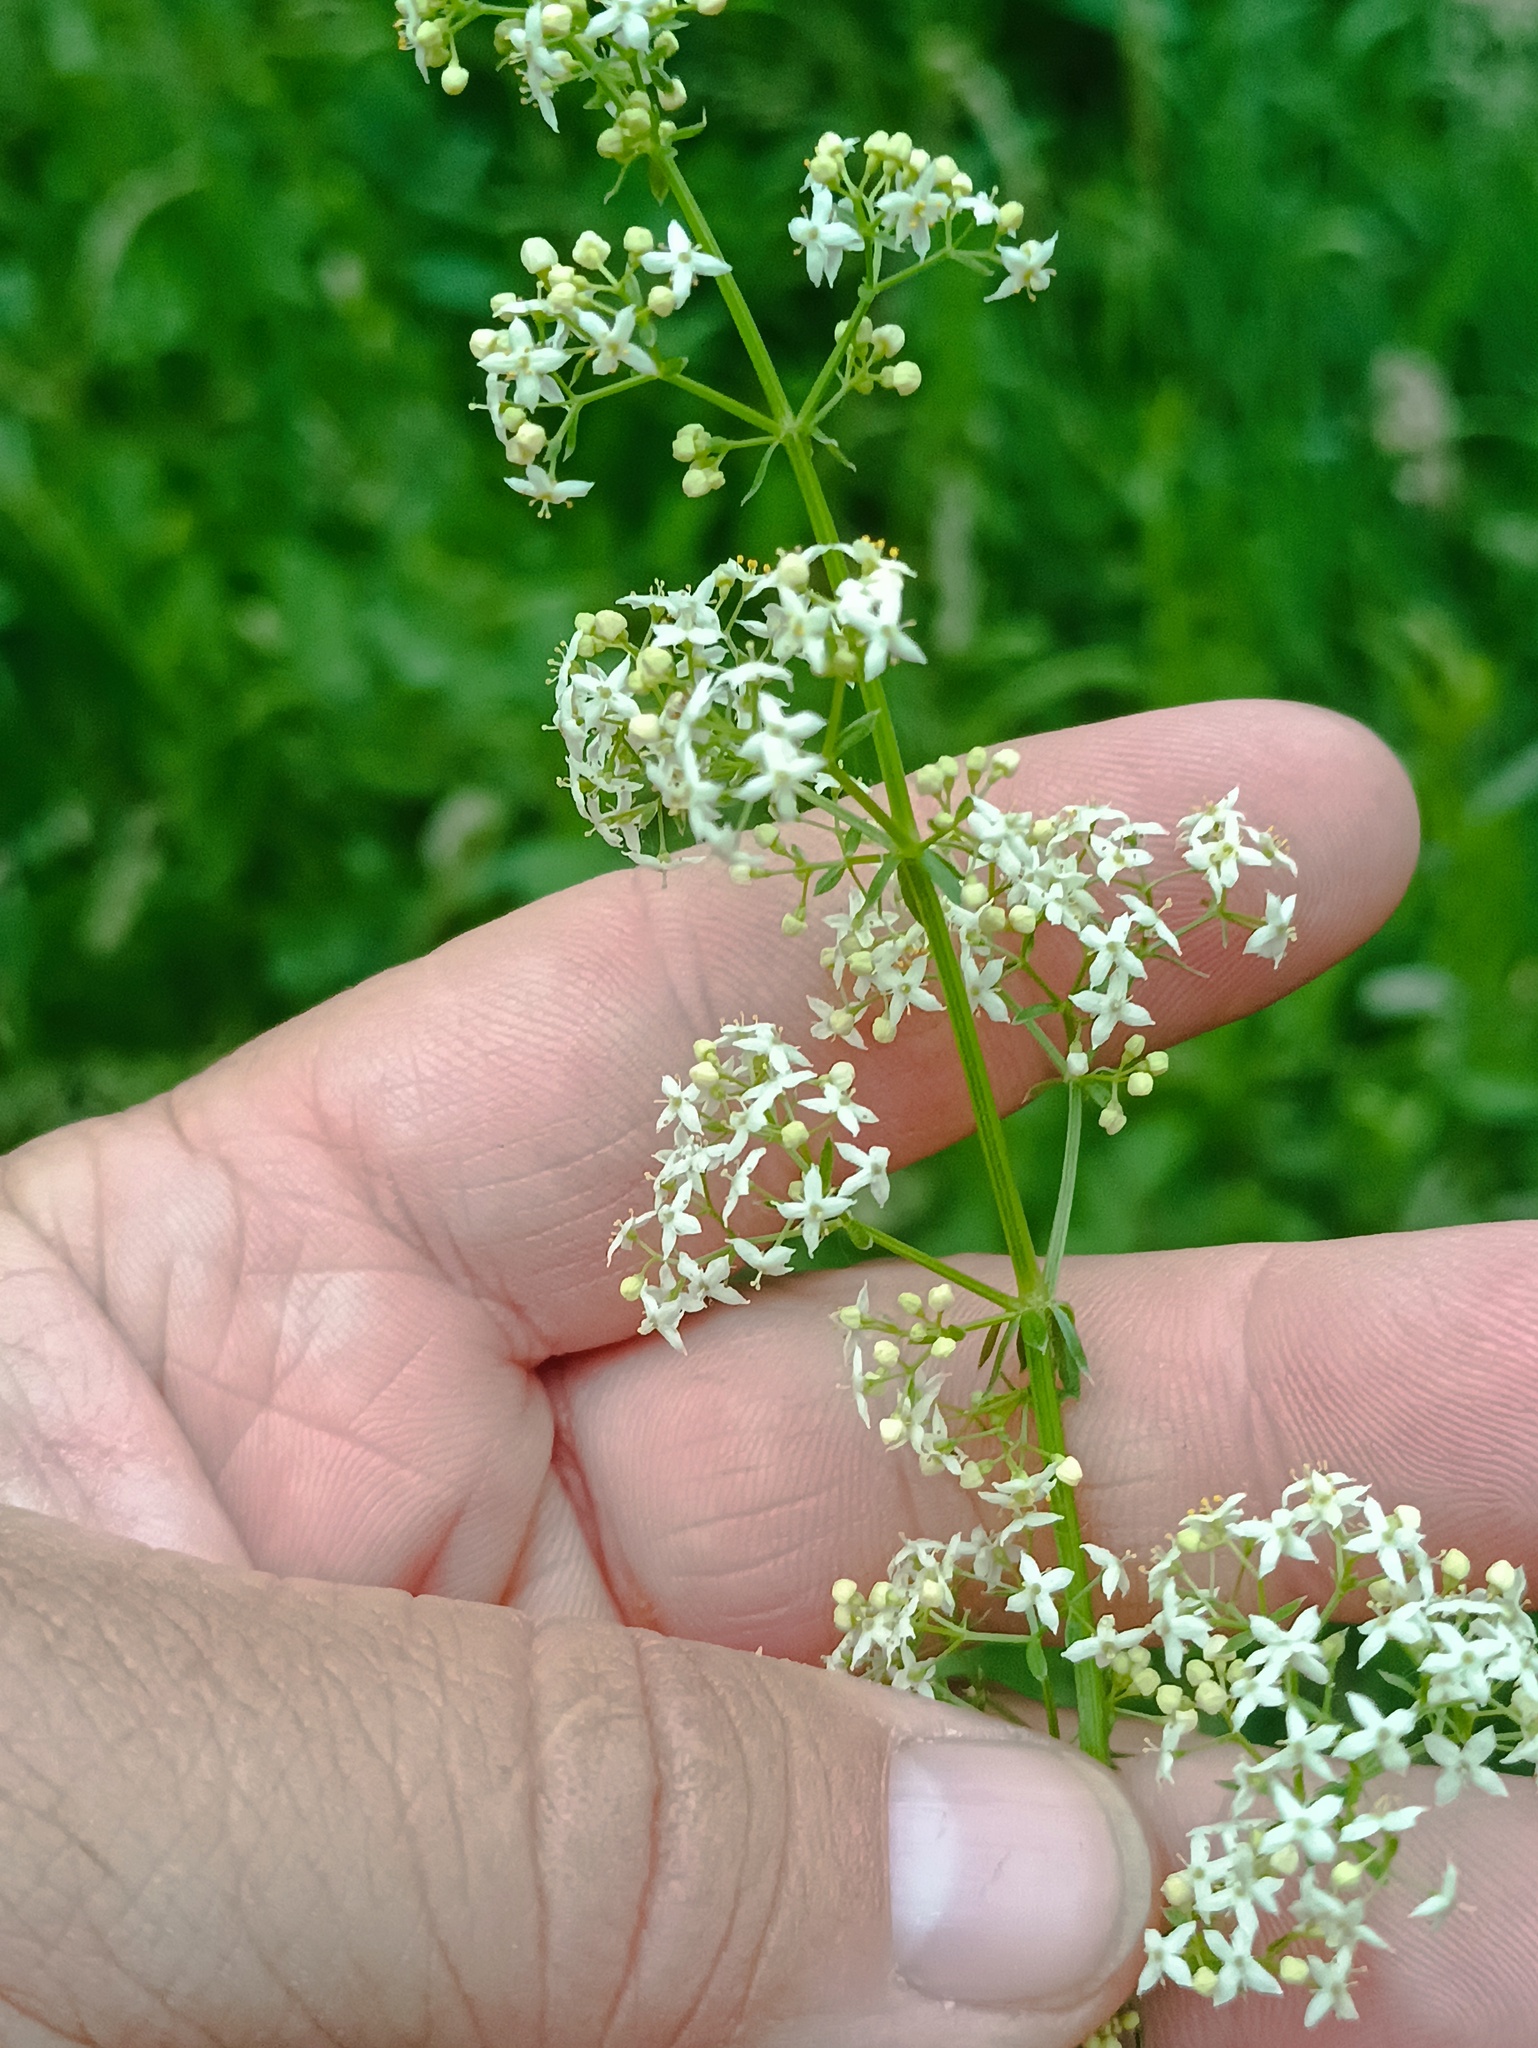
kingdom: Plantae
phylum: Tracheophyta
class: Magnoliopsida
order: Gentianales
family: Rubiaceae
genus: Galium
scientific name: Galium mollugo
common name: Hedge bedstraw
